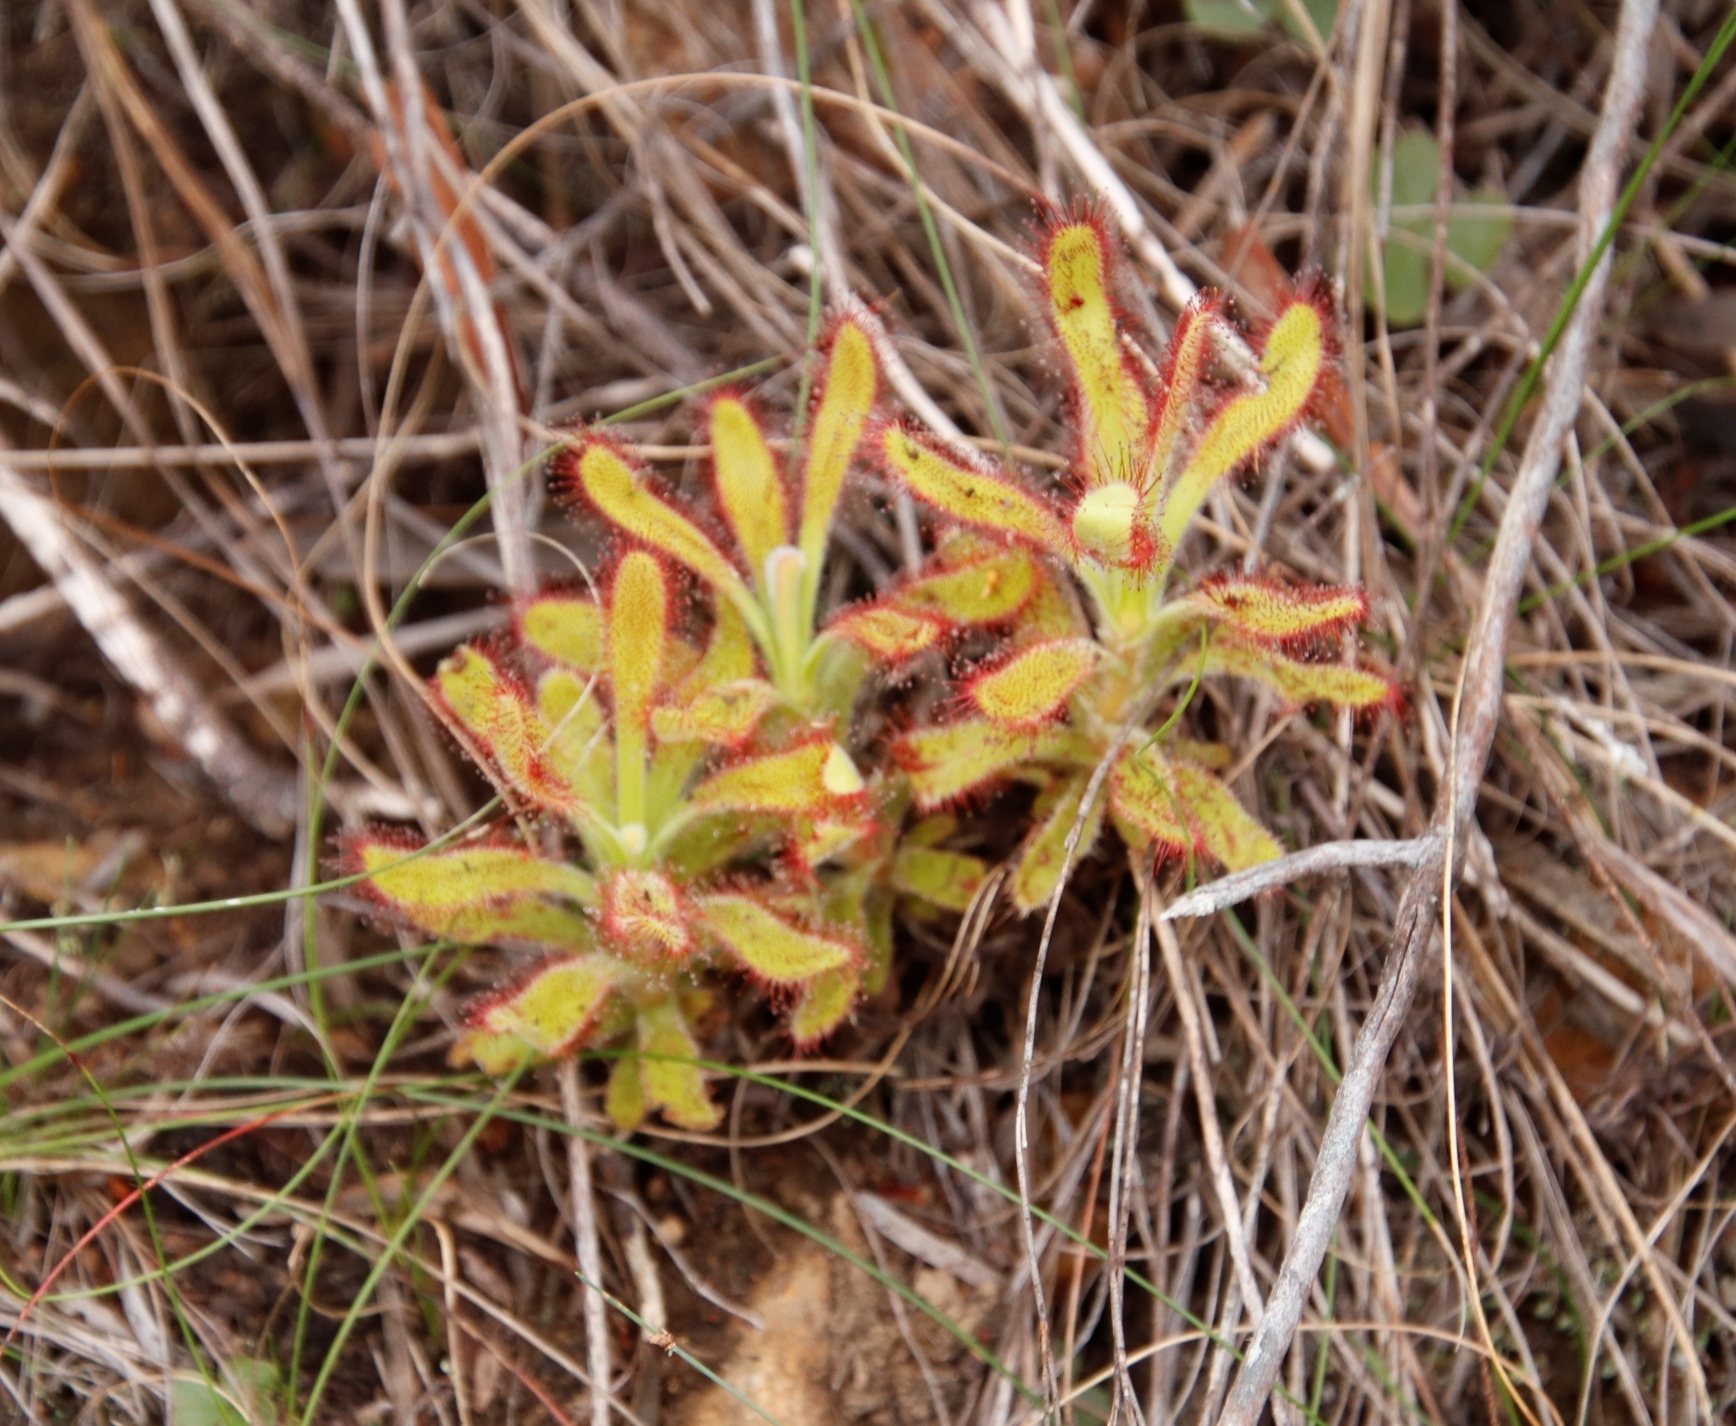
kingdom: Plantae
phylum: Tracheophyta
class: Magnoliopsida
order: Caryophyllales
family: Droseraceae
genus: Drosera
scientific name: Drosera hilaris
